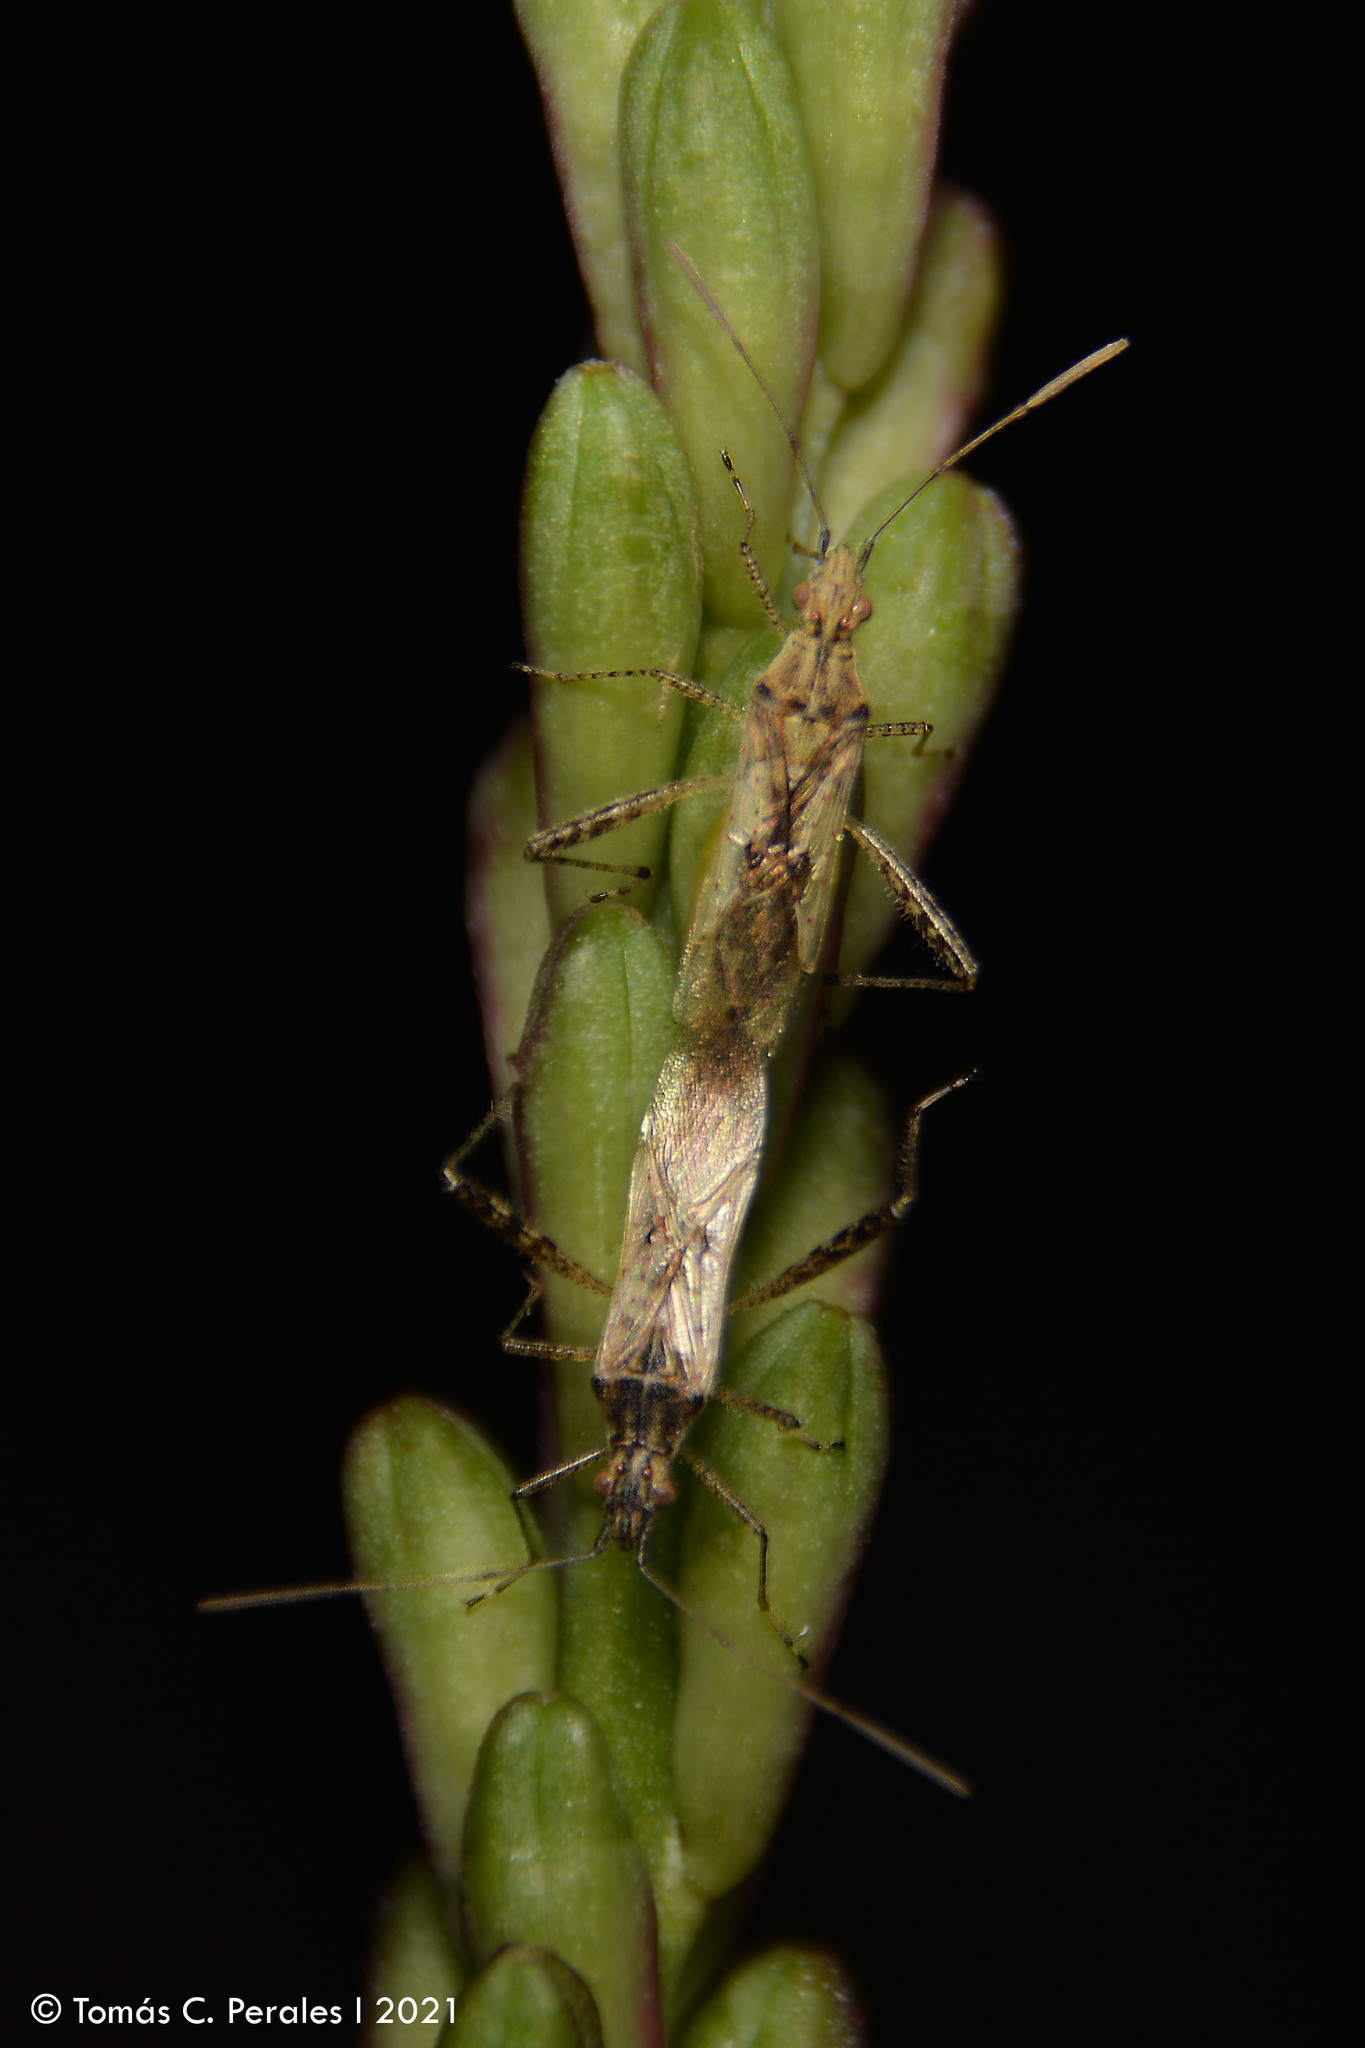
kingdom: Animalia
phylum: Arthropoda
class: Insecta
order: Hemiptera
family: Rhopalidae
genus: Xenogenus
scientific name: Xenogenus picturatum
